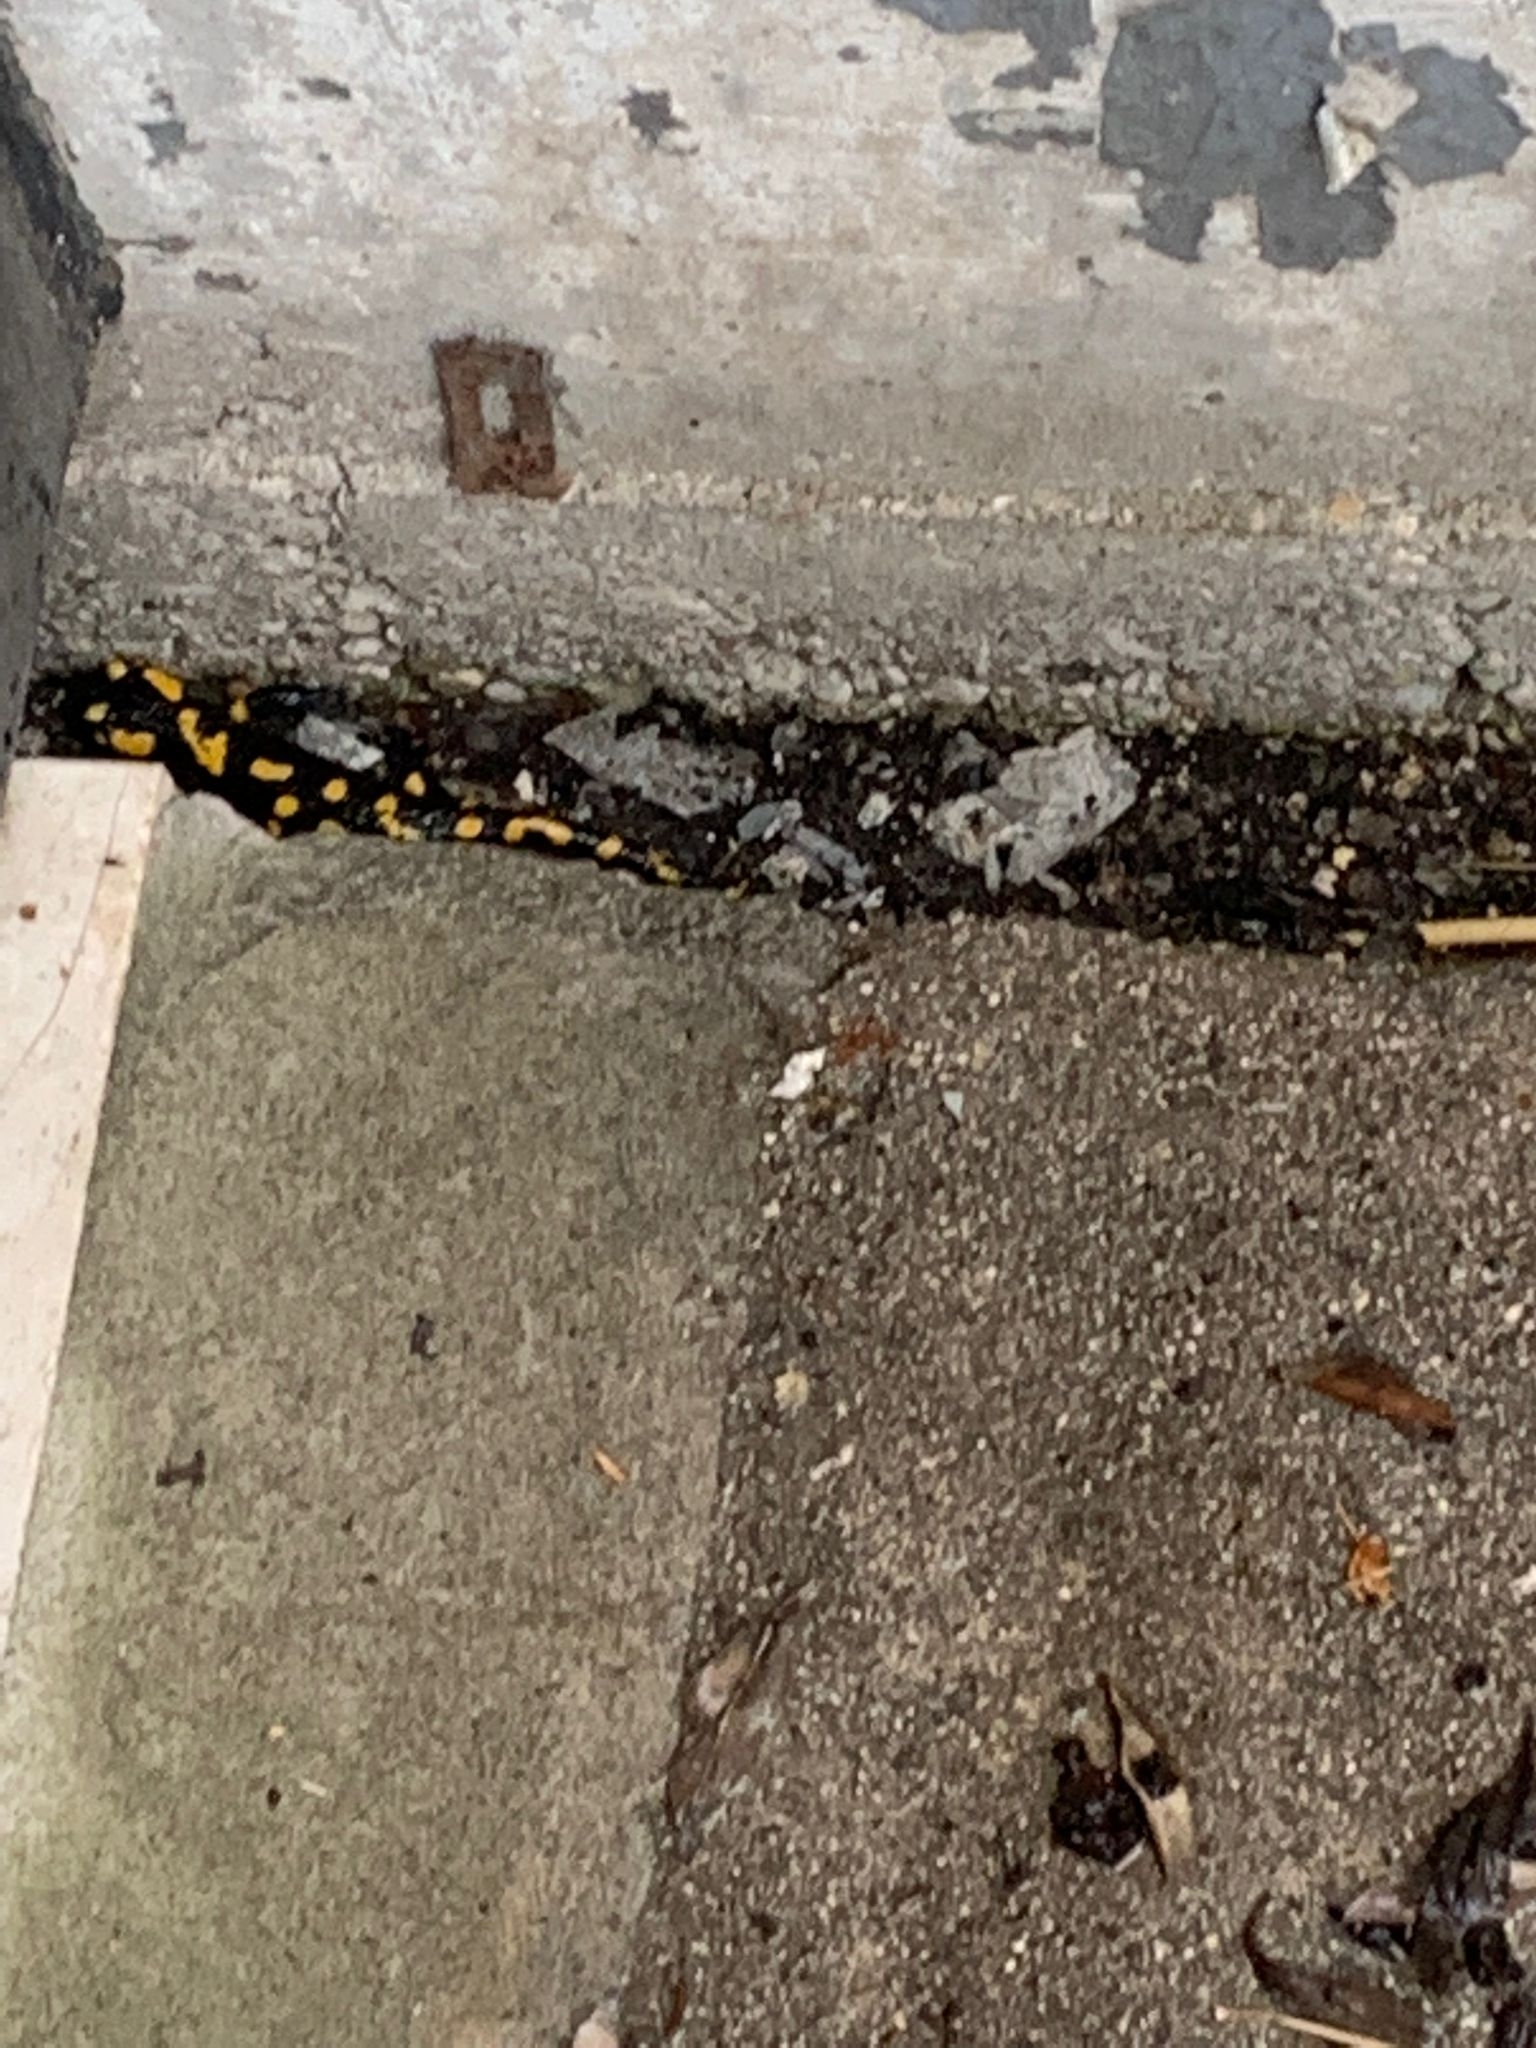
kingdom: Animalia
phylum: Chordata
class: Amphibia
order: Caudata
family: Salamandridae
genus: Salamandra
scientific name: Salamandra salamandra
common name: Fire salamander
